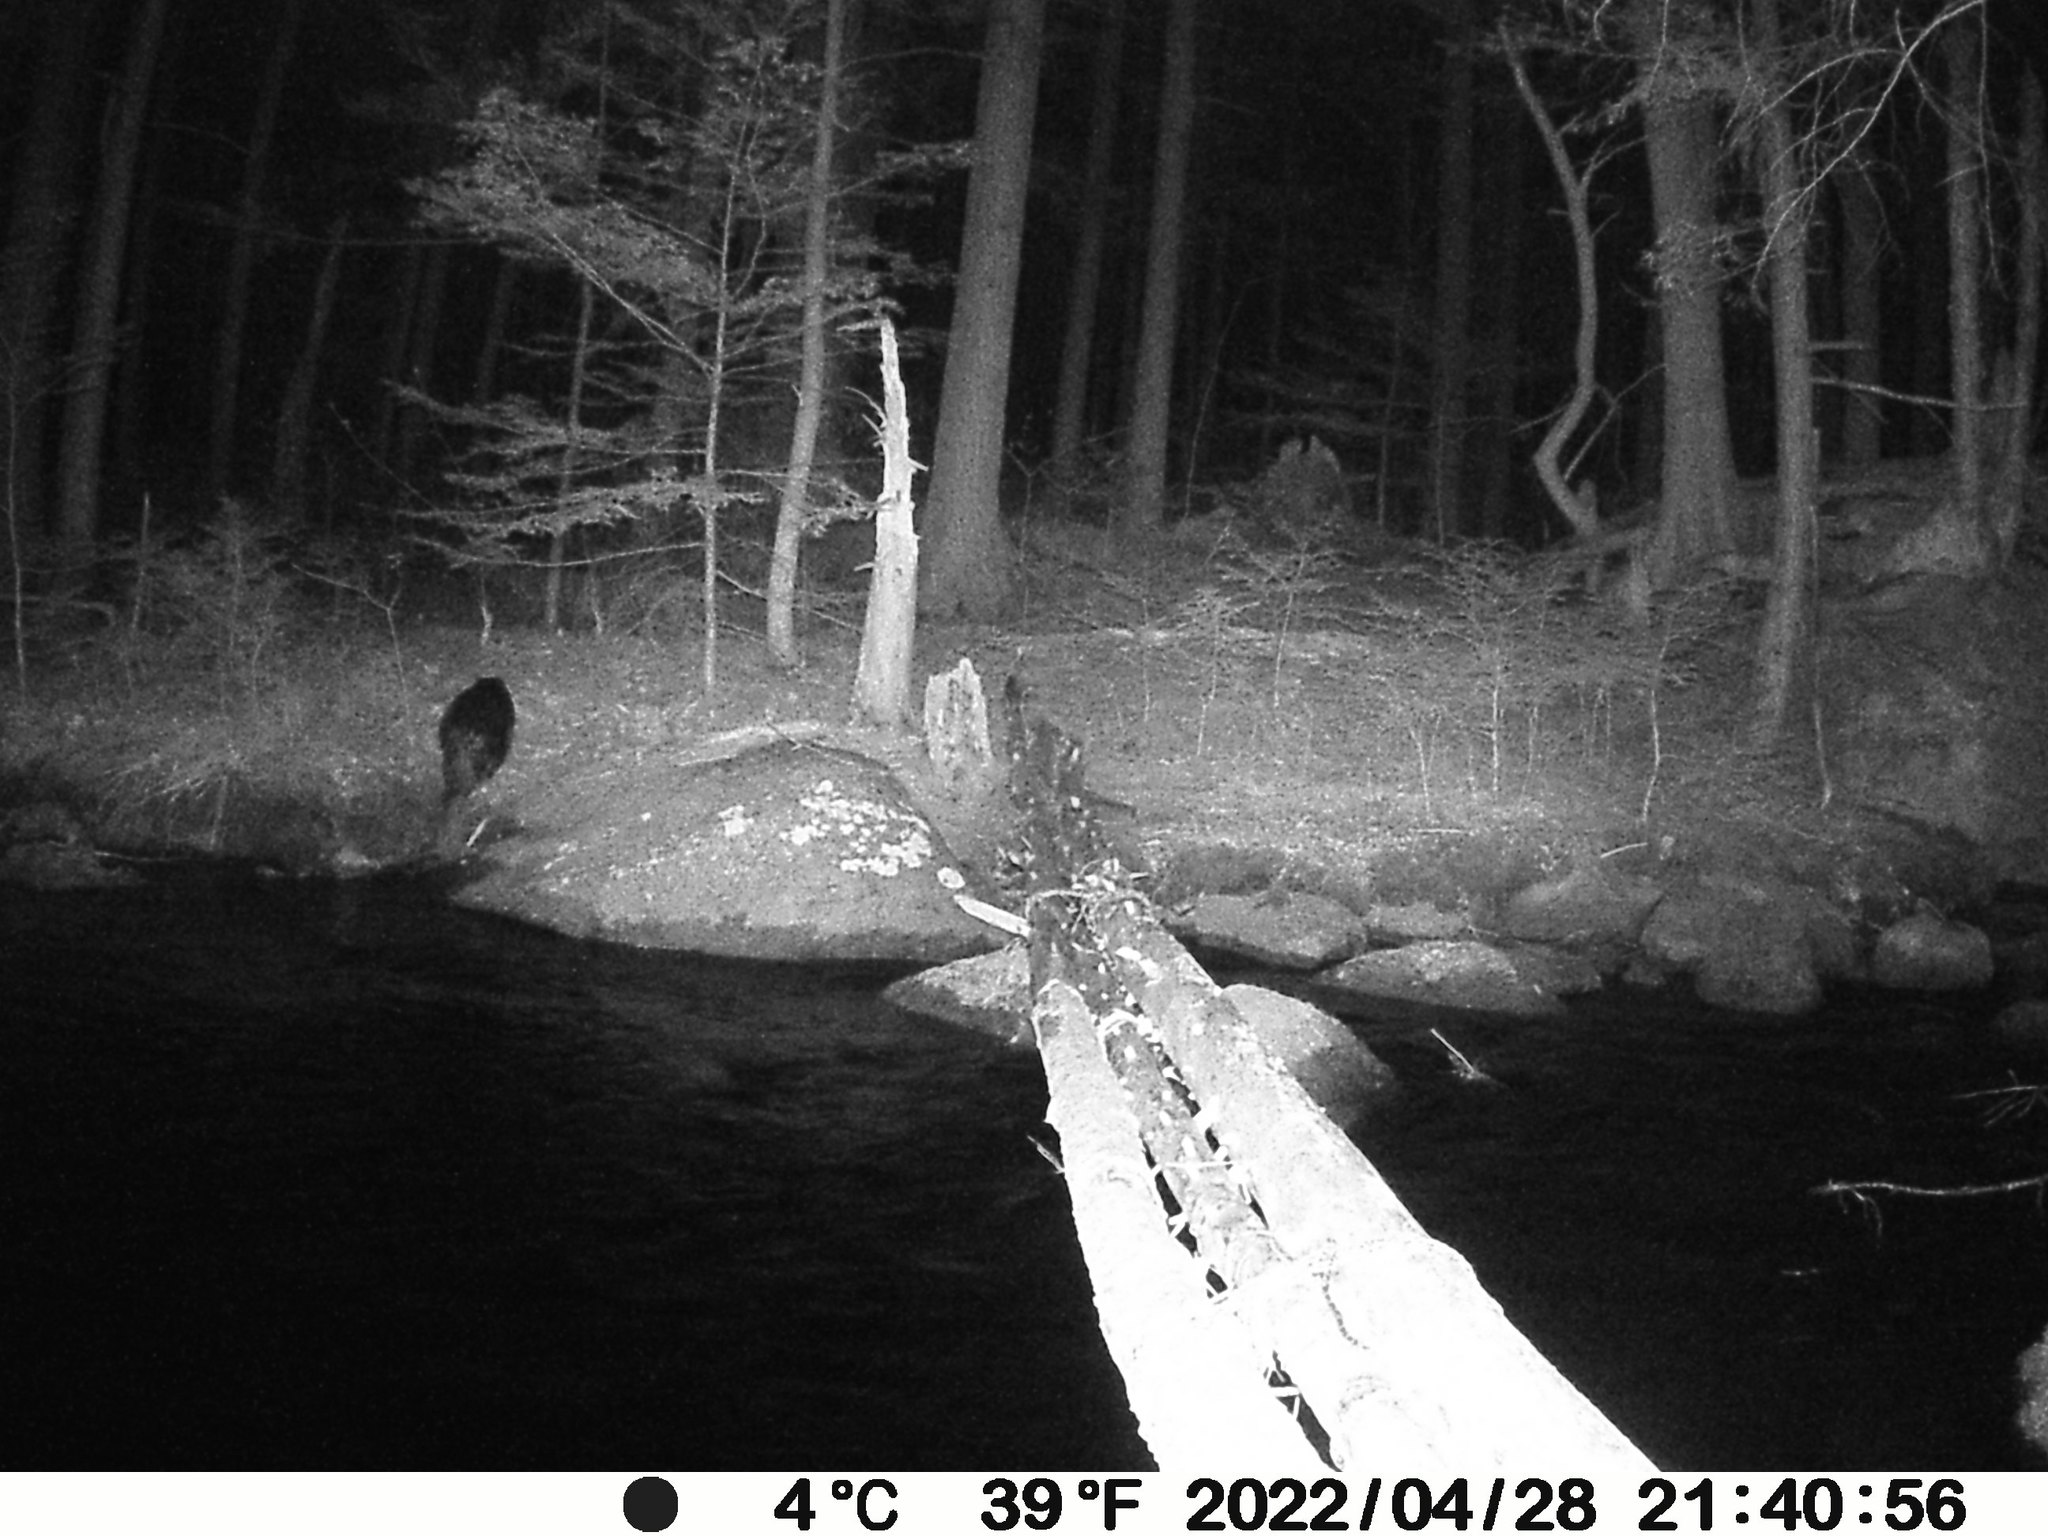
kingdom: Animalia
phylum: Chordata
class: Mammalia
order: Rodentia
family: Castoridae
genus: Castor
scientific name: Castor canadensis
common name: American beaver
